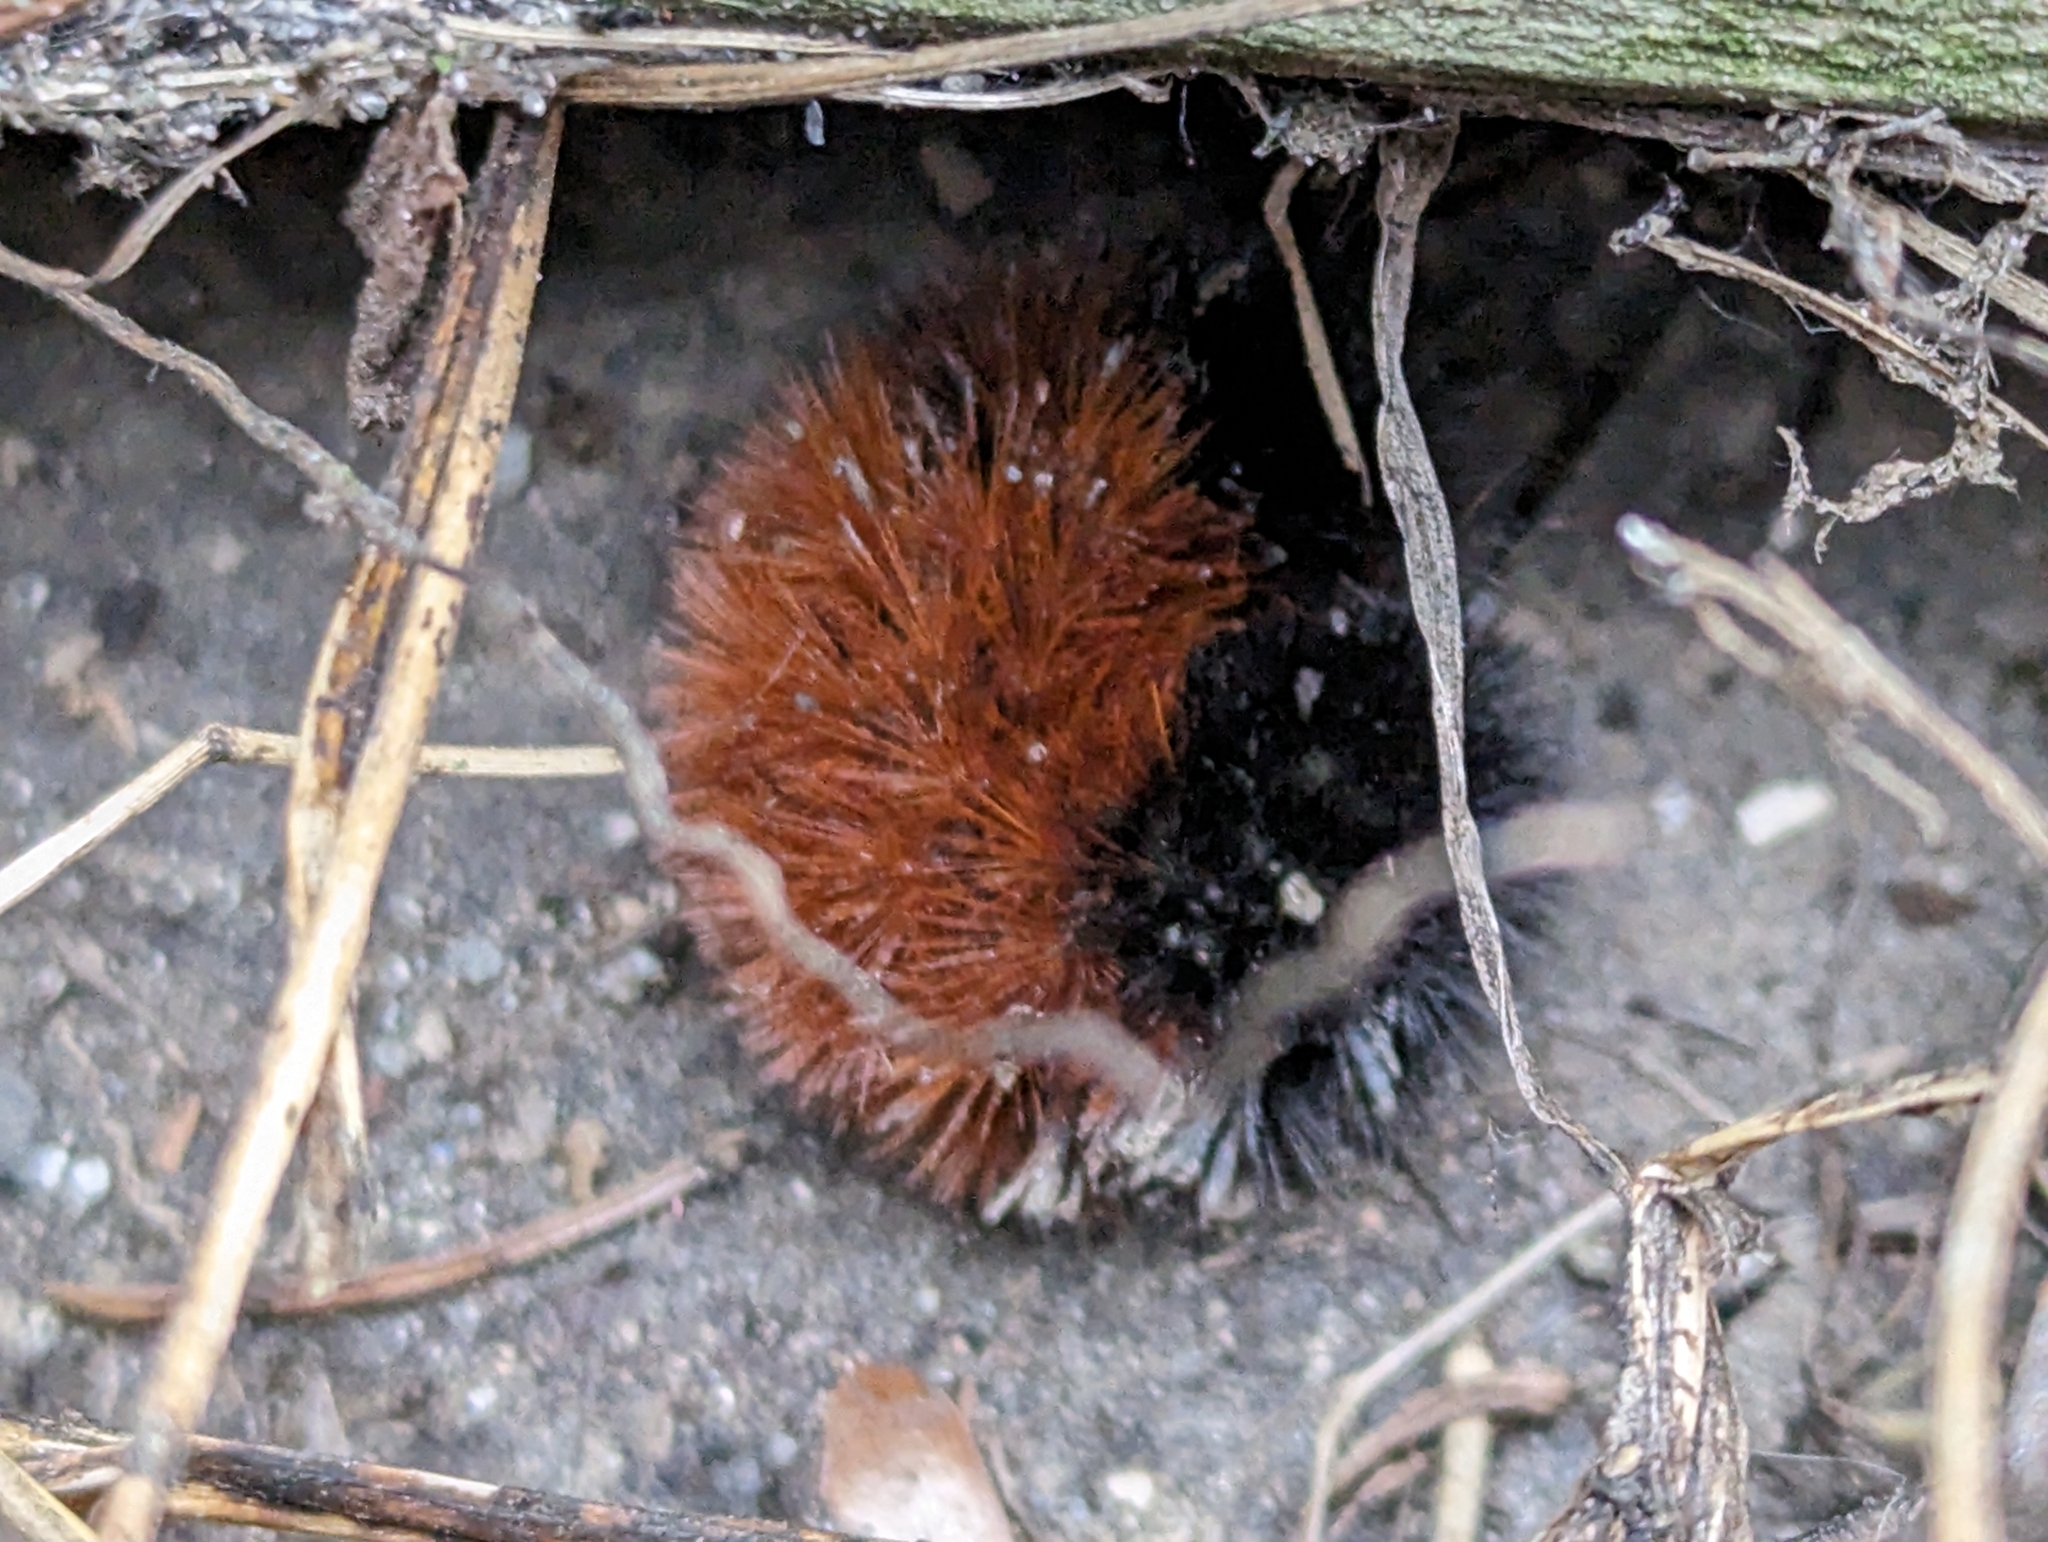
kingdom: Animalia
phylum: Arthropoda
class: Insecta
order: Lepidoptera
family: Erebidae
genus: Pyrrharctia
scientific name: Pyrrharctia isabella
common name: Isabella tiger moth
